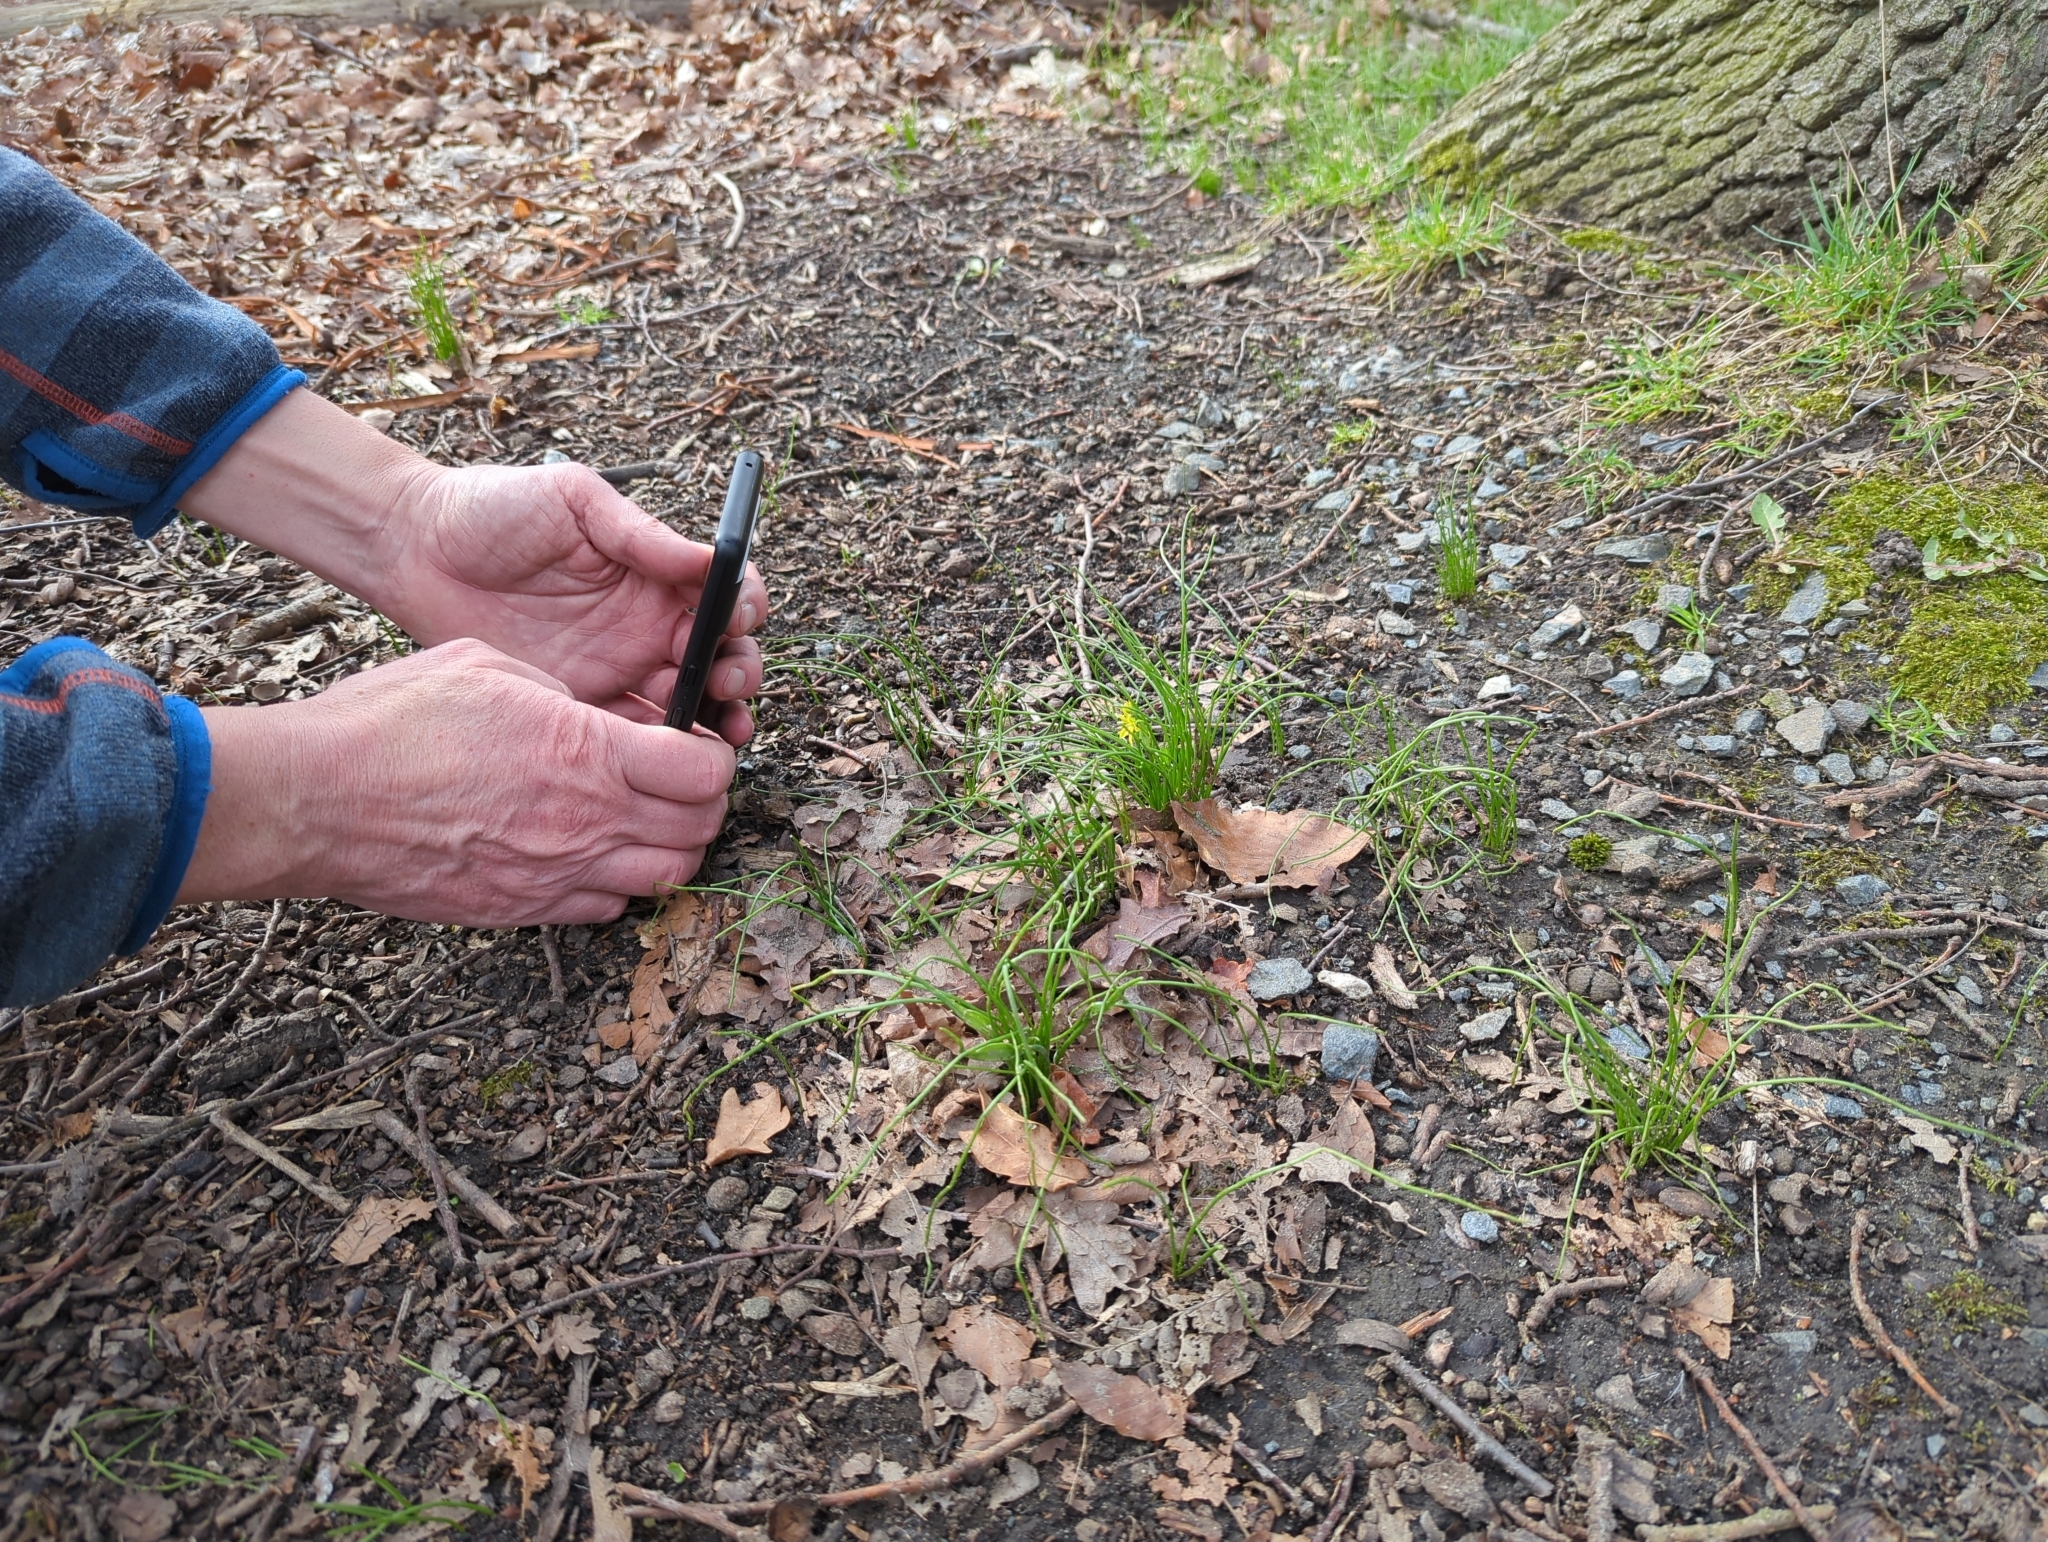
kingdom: Plantae
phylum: Tracheophyta
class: Liliopsida
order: Liliales
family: Liliaceae
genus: Gagea
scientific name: Gagea spathacea
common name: Belgian gagea
